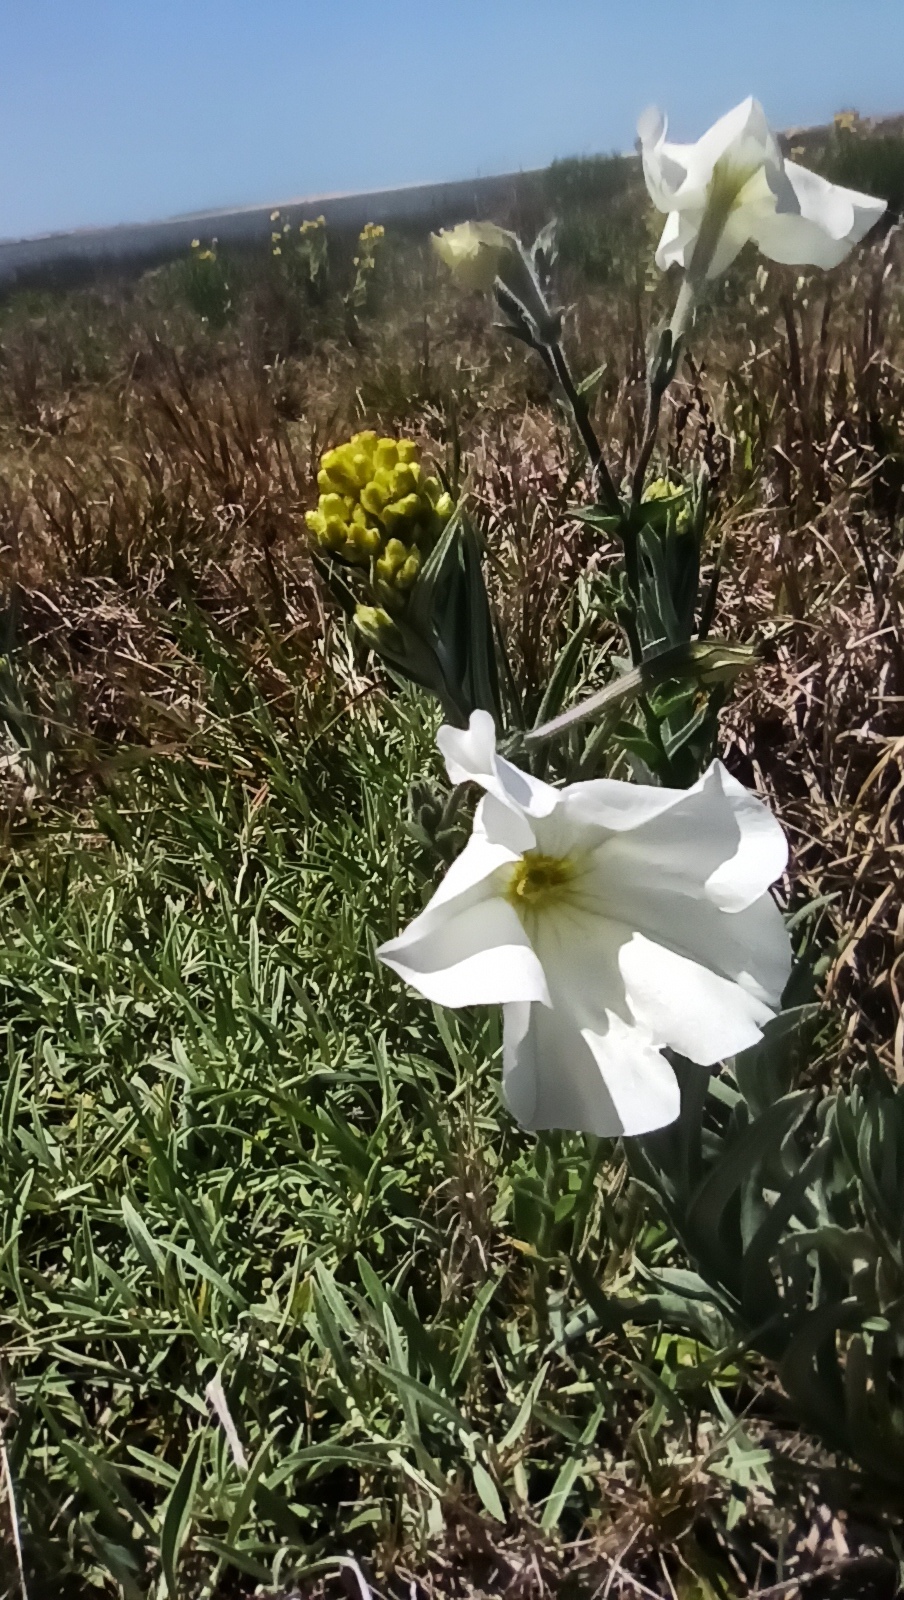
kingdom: Plantae
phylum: Tracheophyta
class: Magnoliopsida
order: Solanales
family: Solanaceae
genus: Petunia
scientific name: Petunia axillaris
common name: Large white petunia
